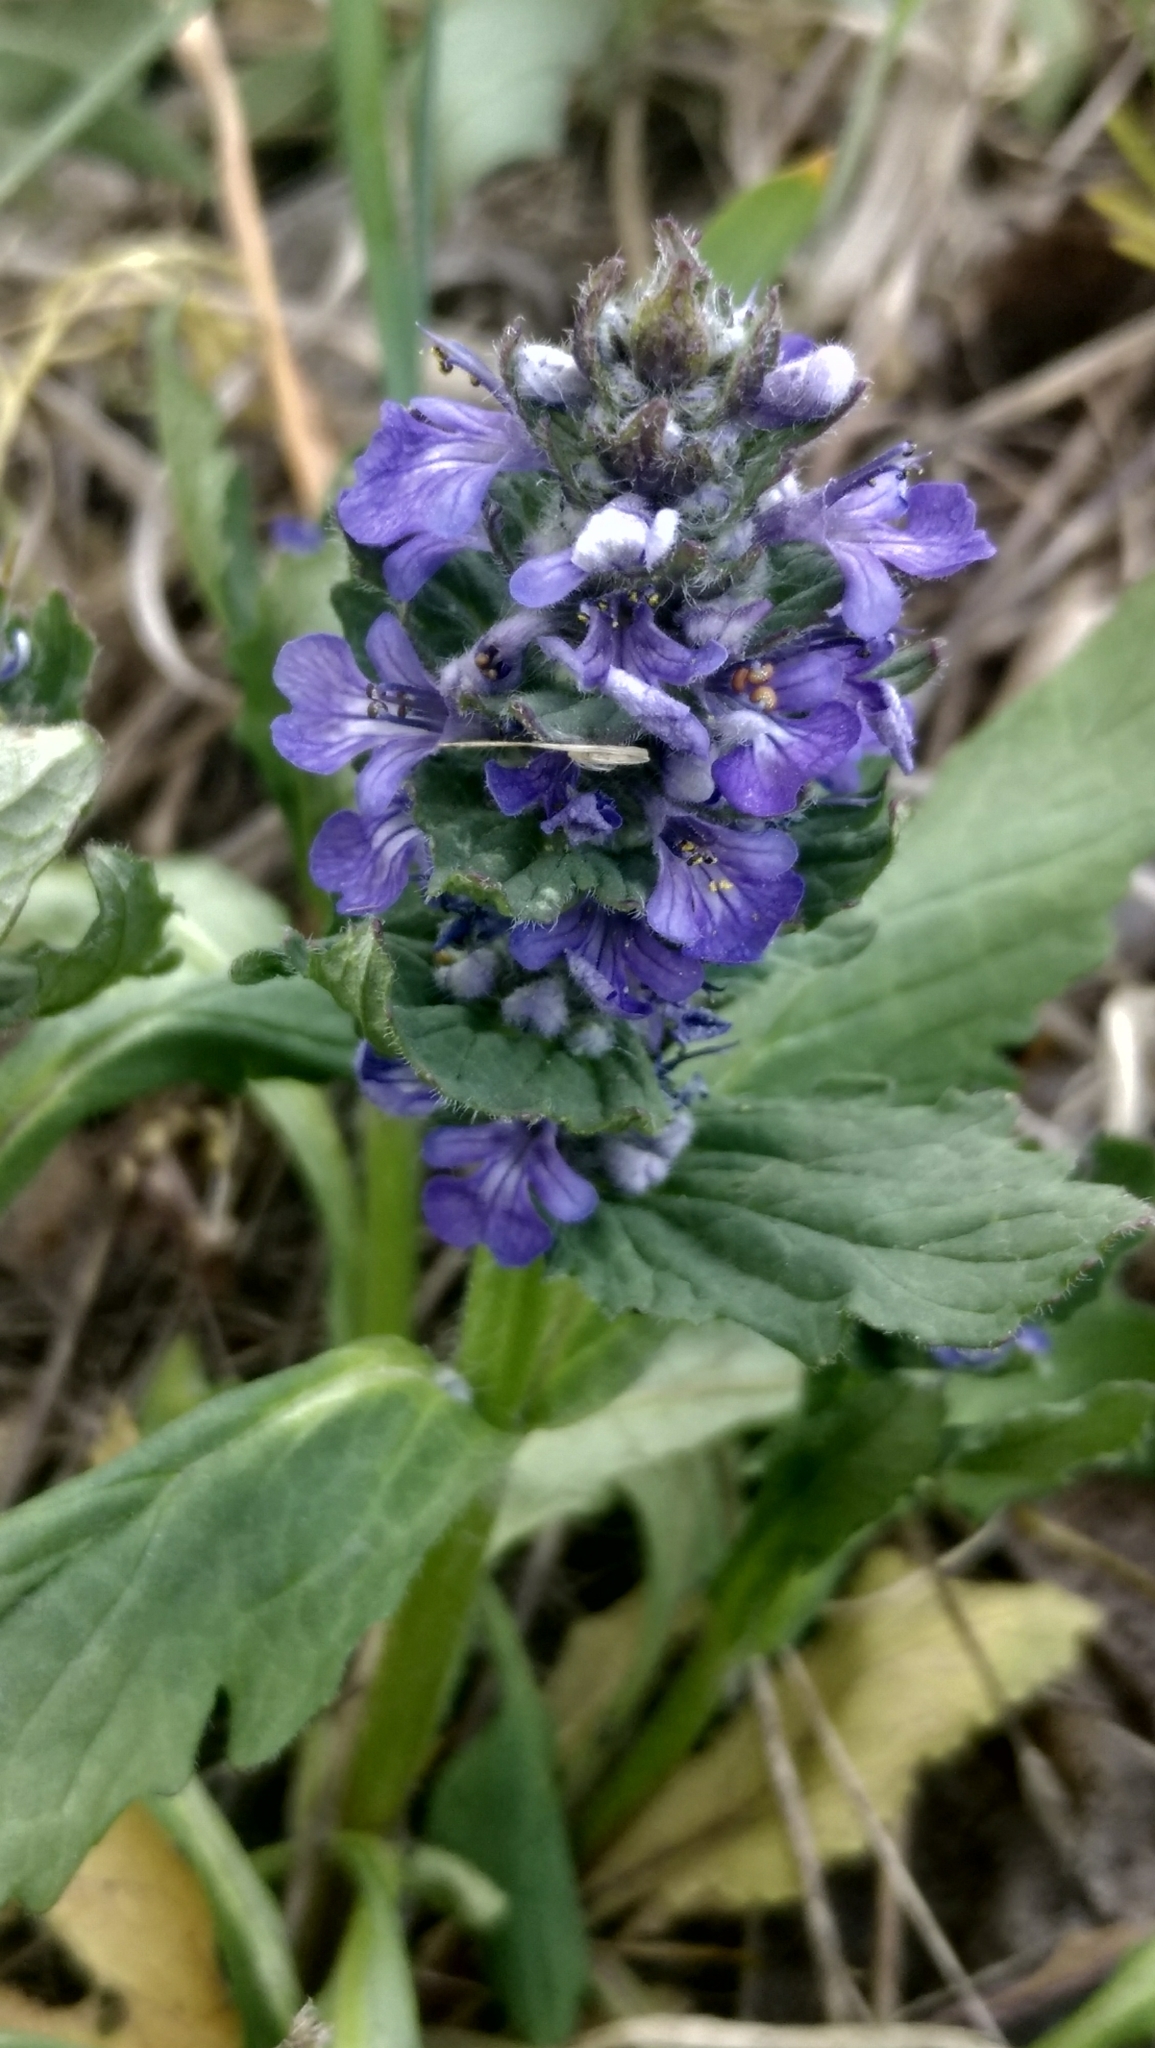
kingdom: Plantae
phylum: Tracheophyta
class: Magnoliopsida
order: Lamiales
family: Lamiaceae
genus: Ajuga
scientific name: Ajuga genevensis
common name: Blue bugle
